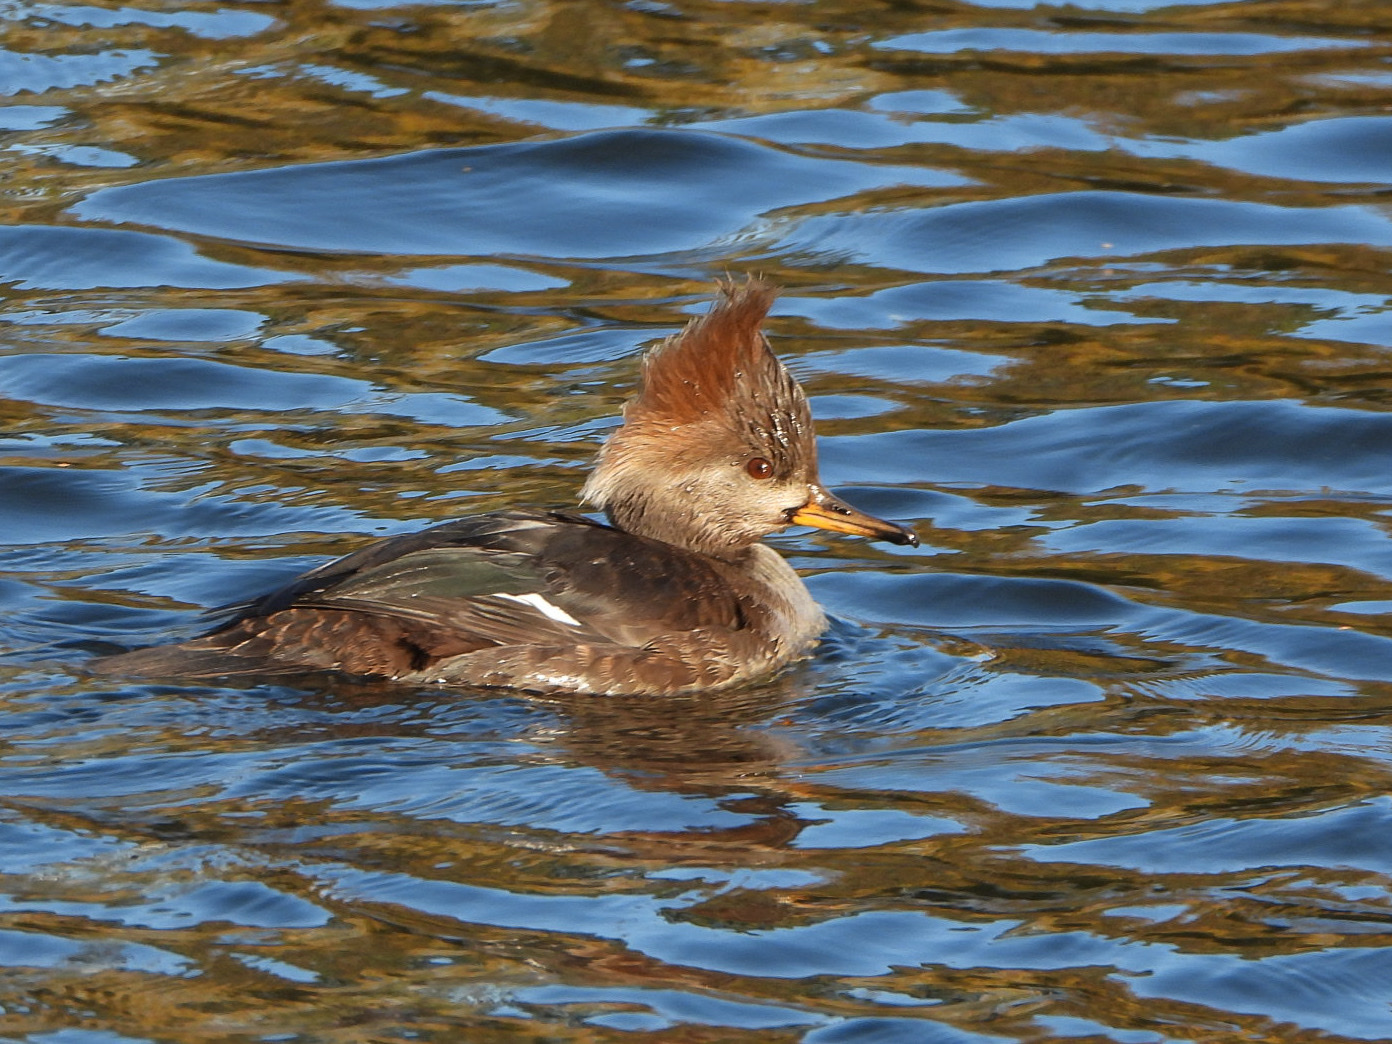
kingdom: Animalia
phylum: Chordata
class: Aves
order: Anseriformes
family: Anatidae
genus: Lophodytes
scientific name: Lophodytes cucullatus
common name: Hooded merganser
